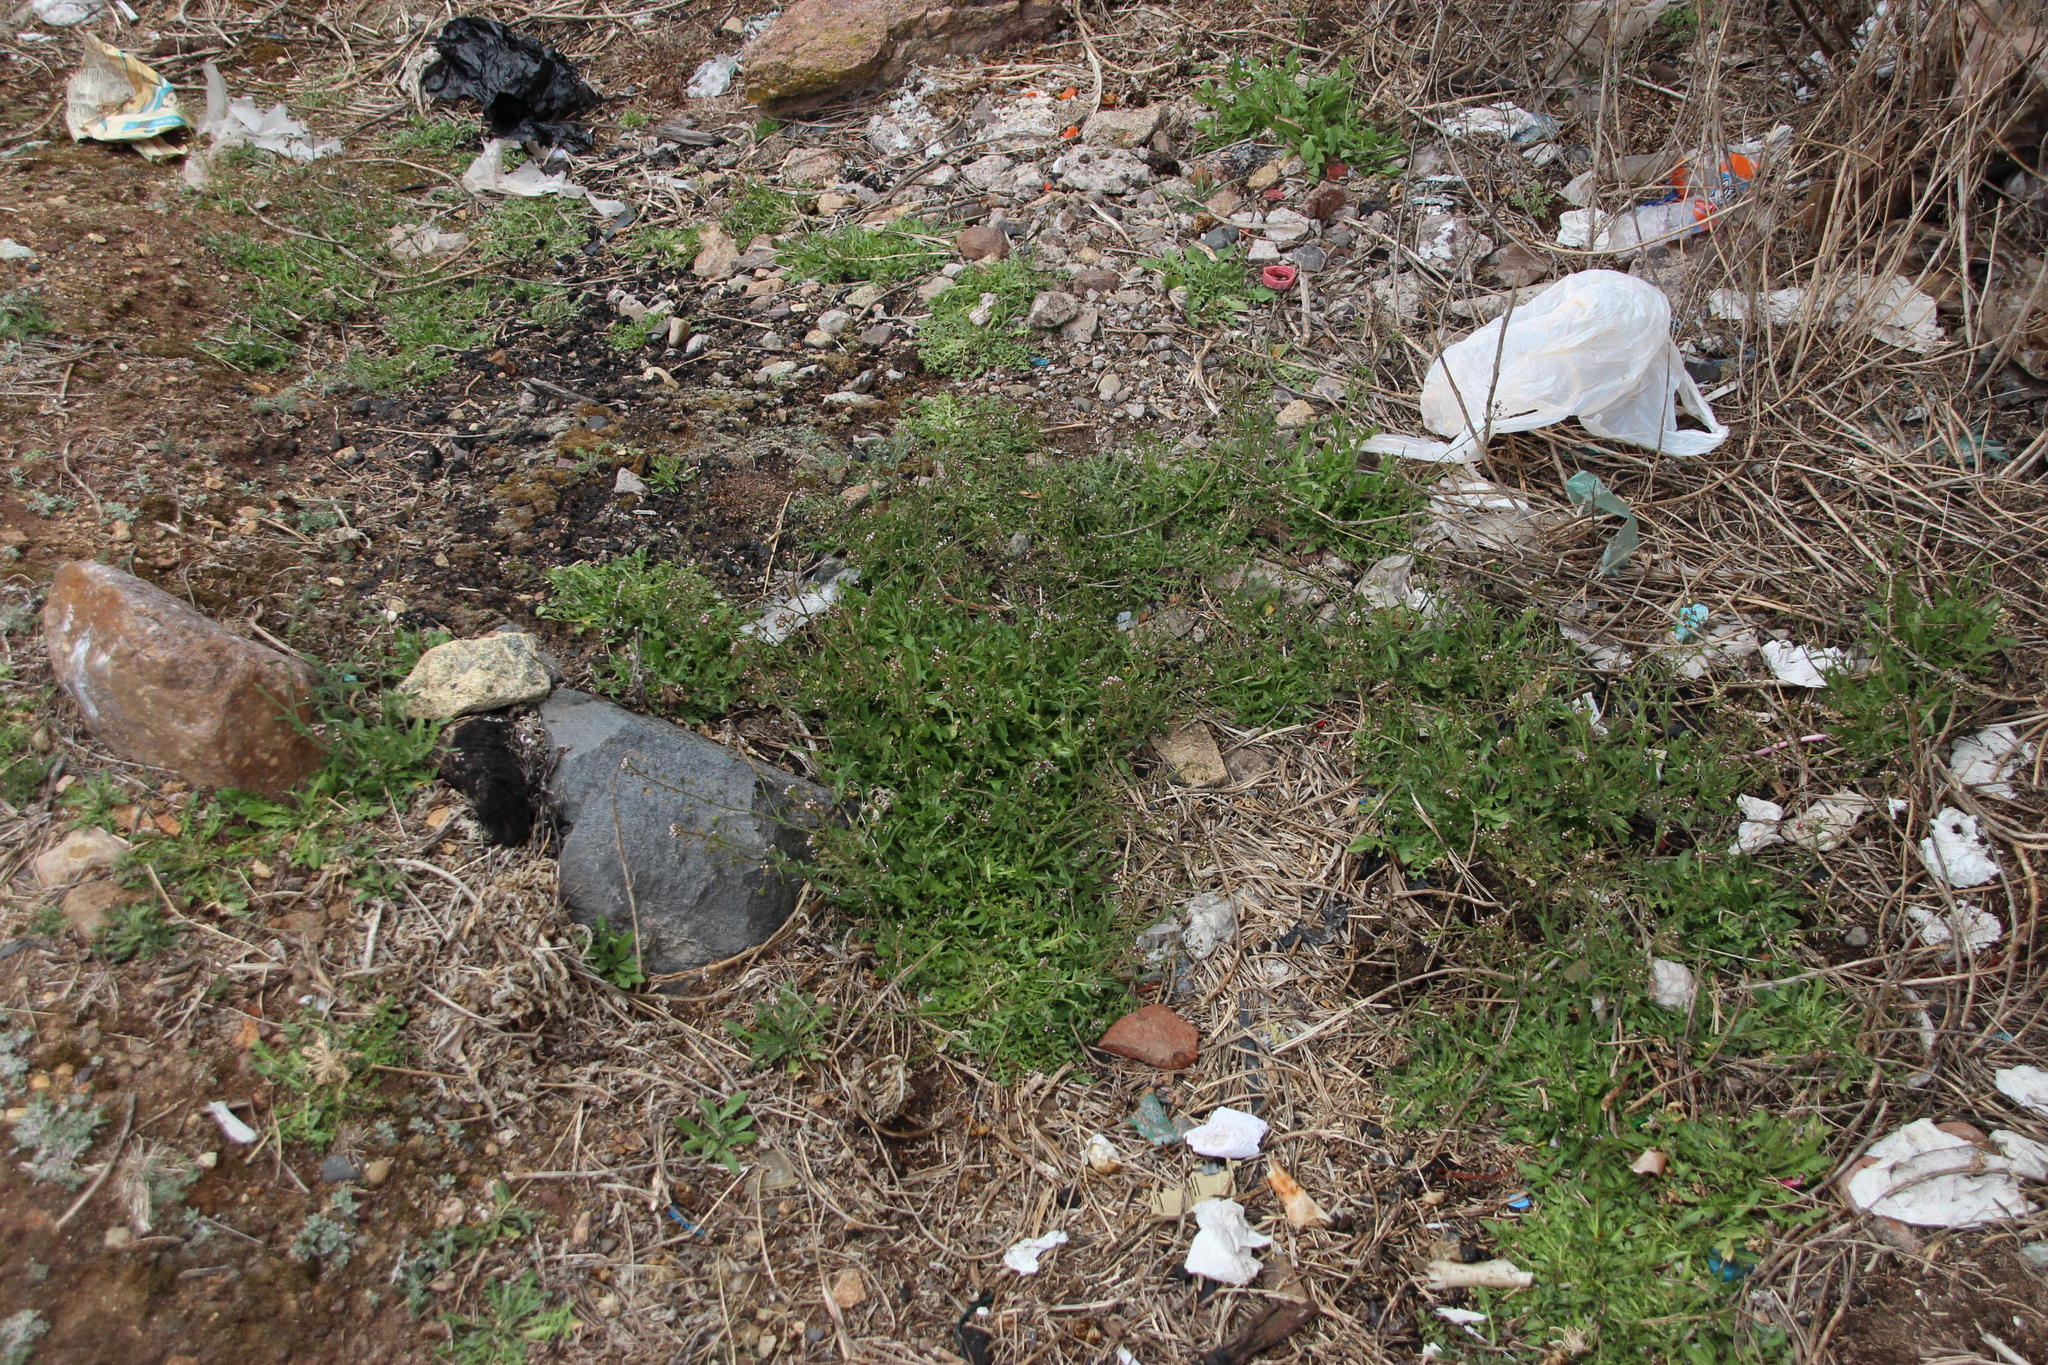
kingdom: Plantae
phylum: Tracheophyta
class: Magnoliopsida
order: Brassicales
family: Brassicaceae
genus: Capsella
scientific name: Capsella bursa-pastoris
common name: Shepherd's purse
